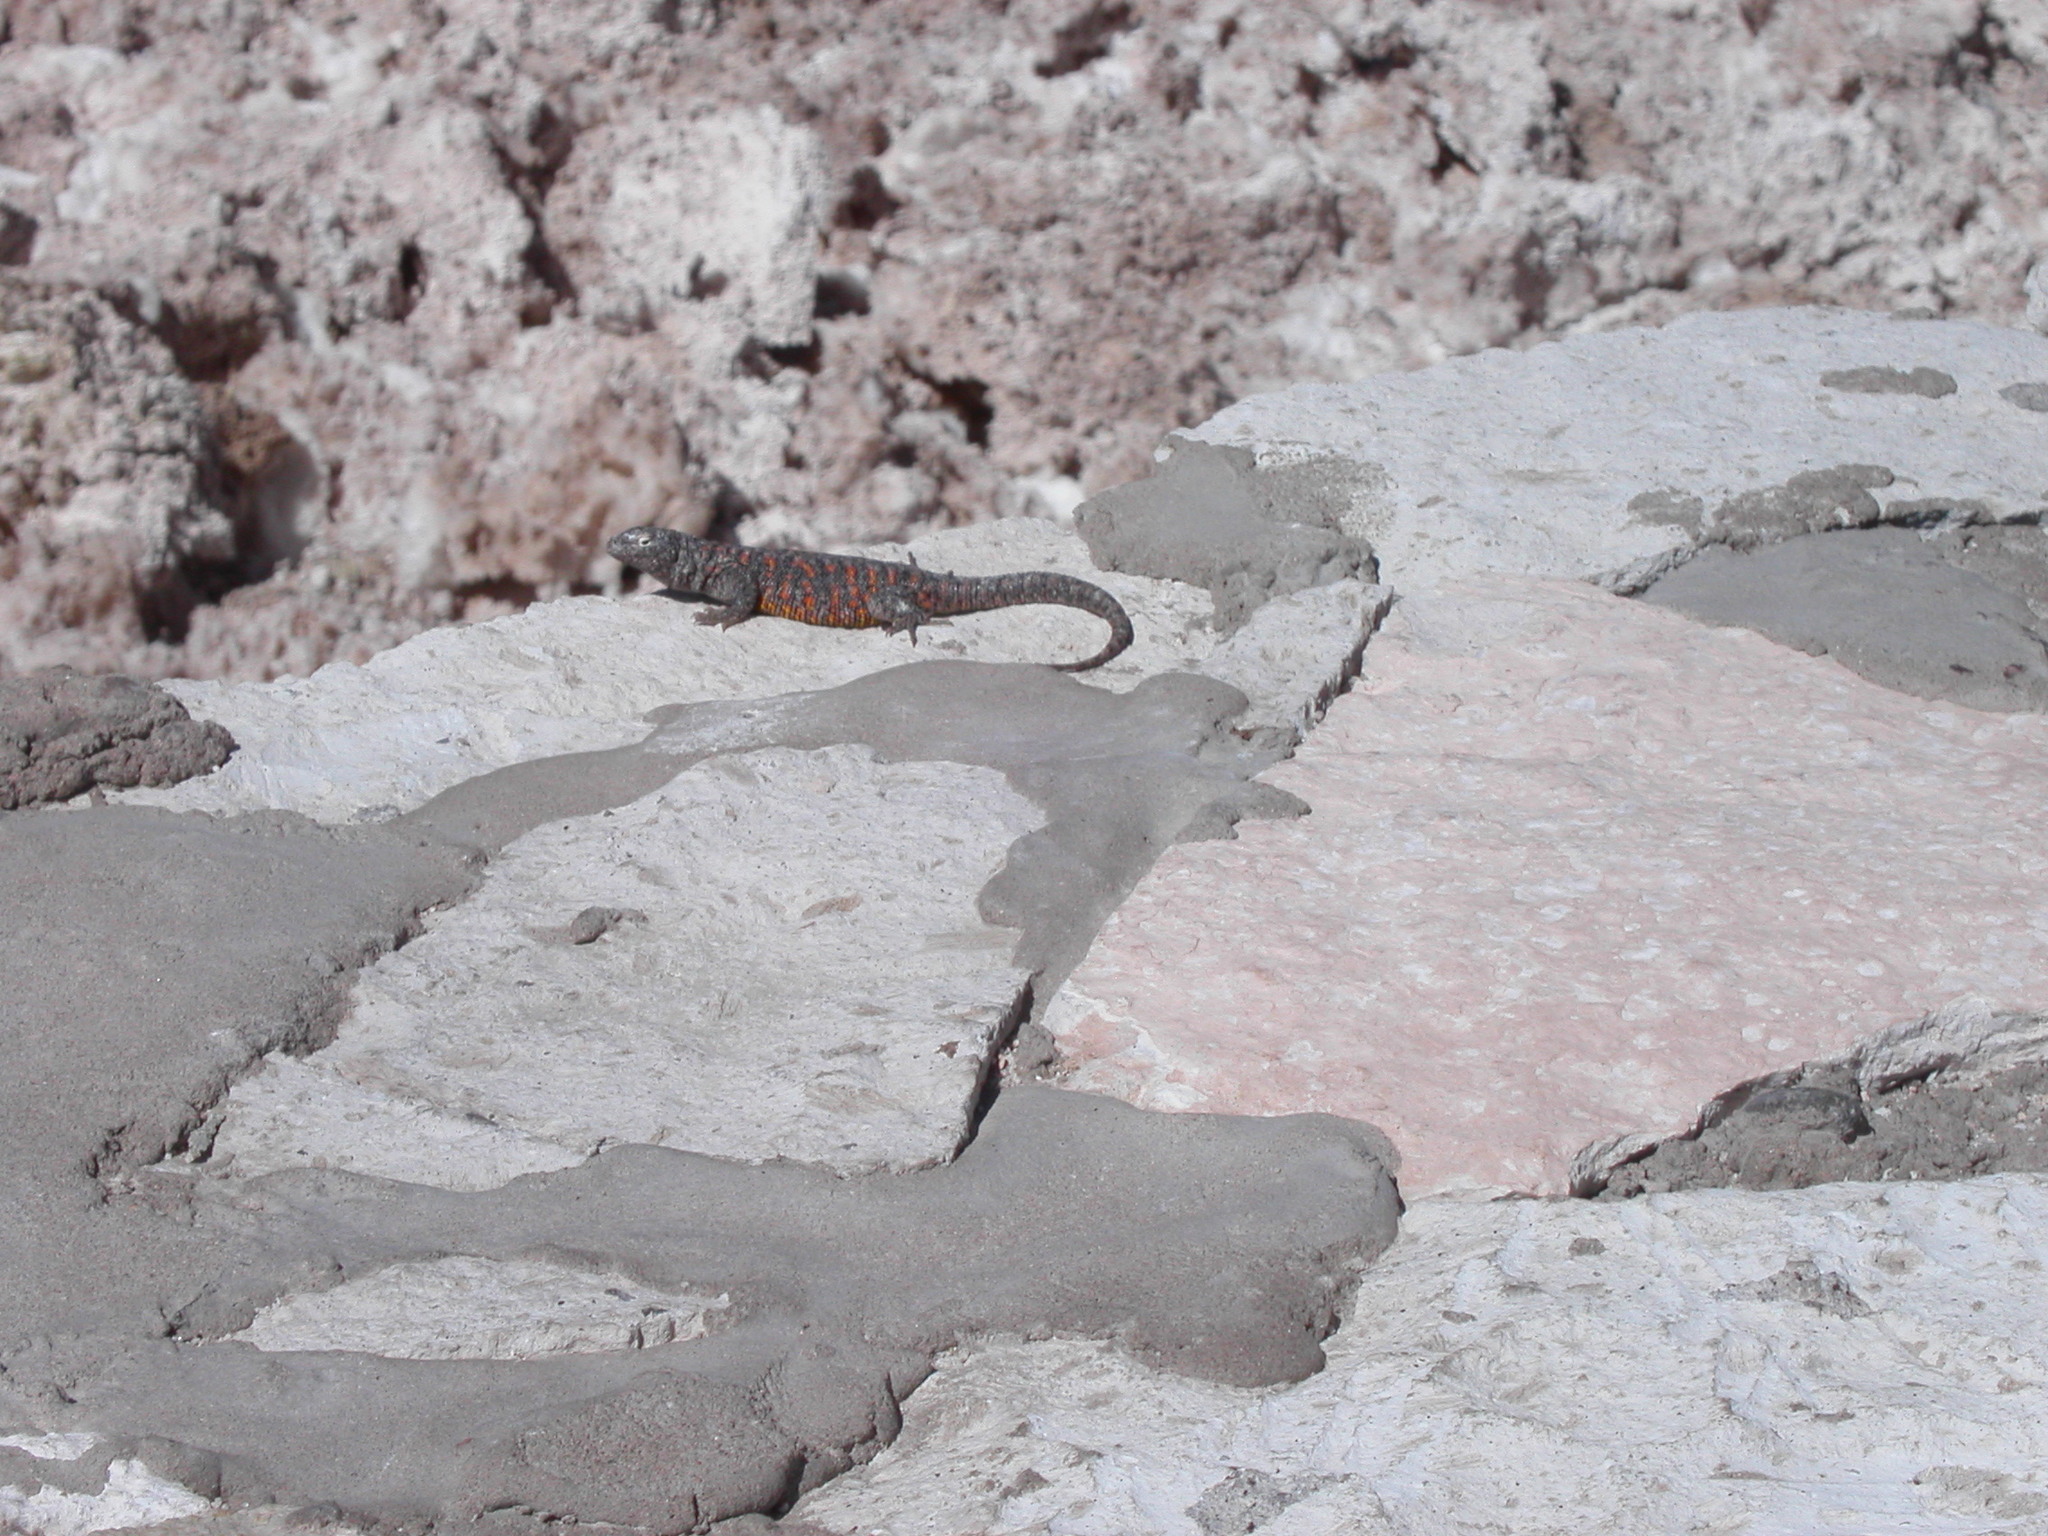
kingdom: Animalia
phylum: Chordata
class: Squamata
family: Liolaemidae
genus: Liolaemus
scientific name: Liolaemus fabiani
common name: Fabian’s lizard
